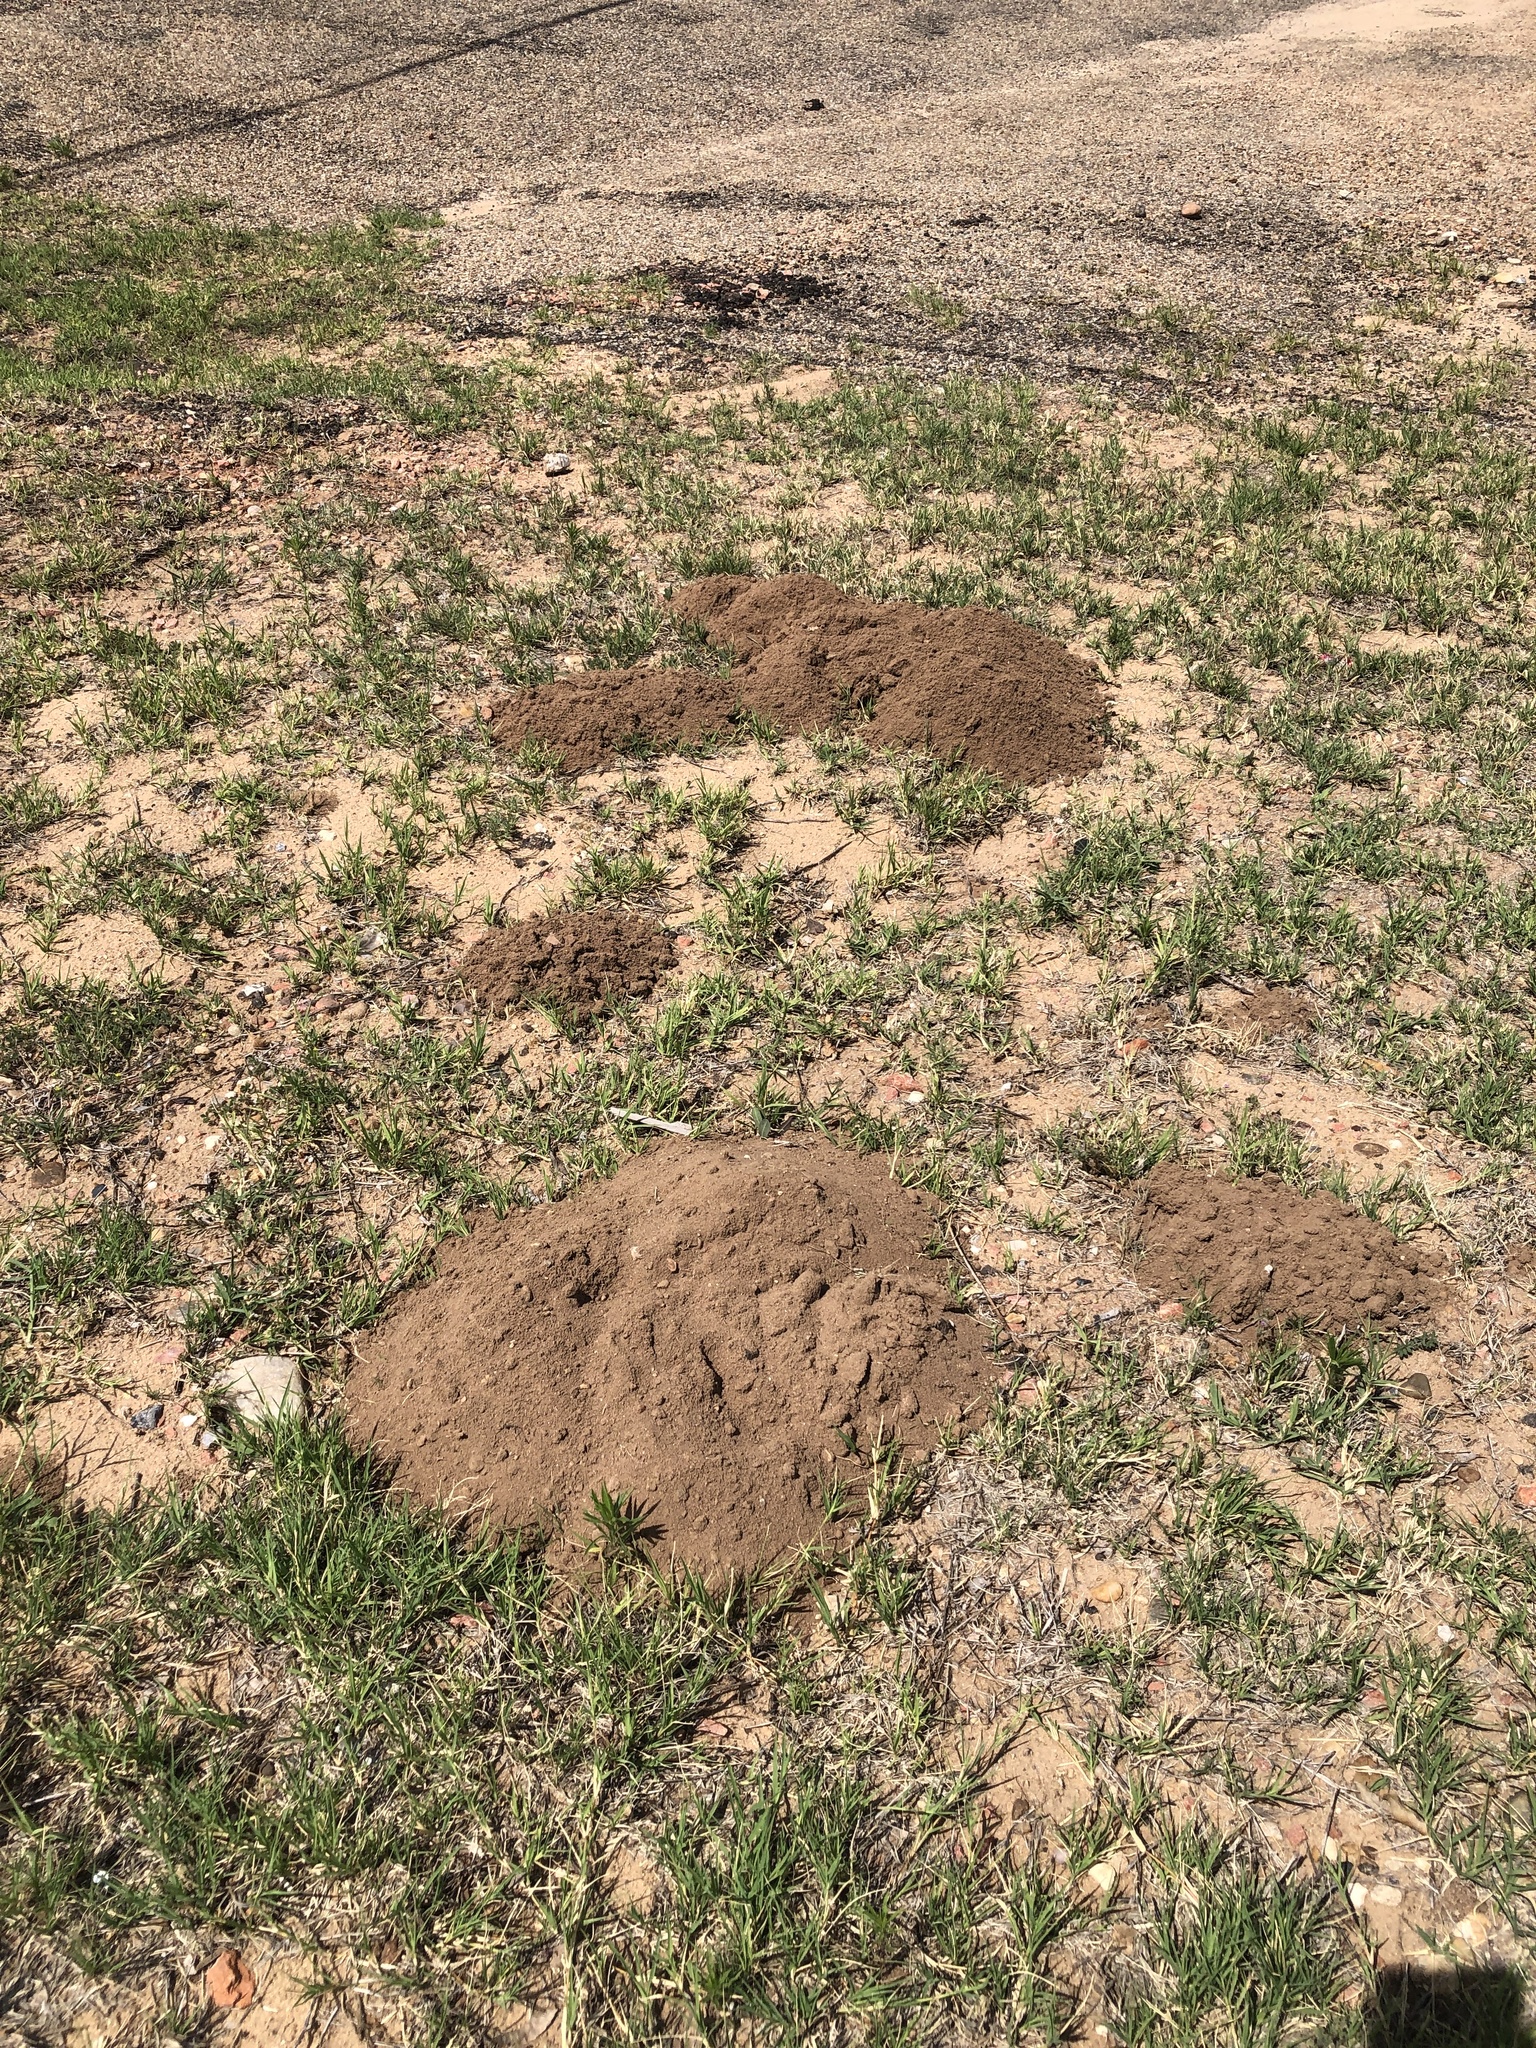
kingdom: Animalia
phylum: Chordata
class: Mammalia
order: Rodentia
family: Geomyidae
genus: Geomys
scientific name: Geomys bursarius
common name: Plains pocket gopher
